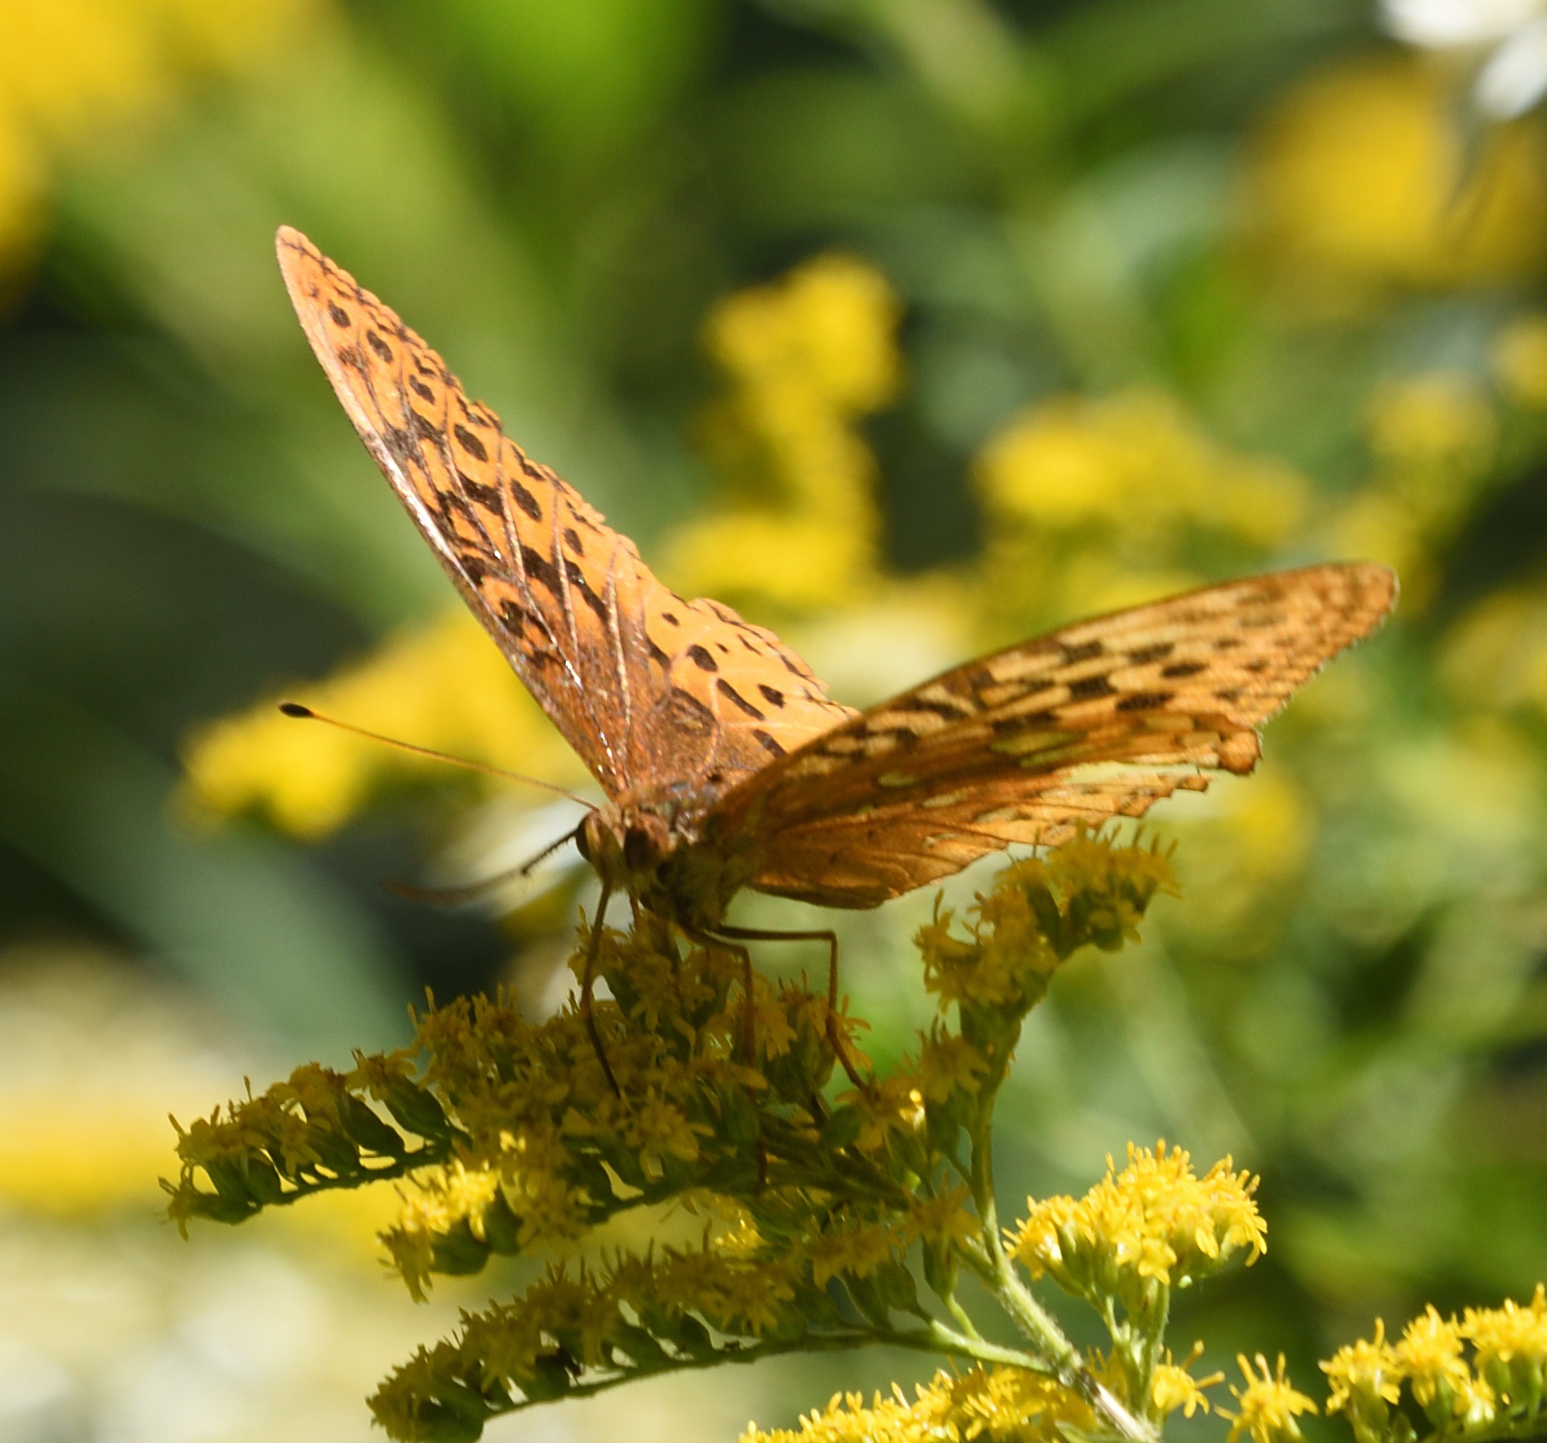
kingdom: Animalia
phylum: Arthropoda
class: Insecta
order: Lepidoptera
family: Nymphalidae
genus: Speyeria
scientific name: Speyeria cybele
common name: Great spangled fritillary
